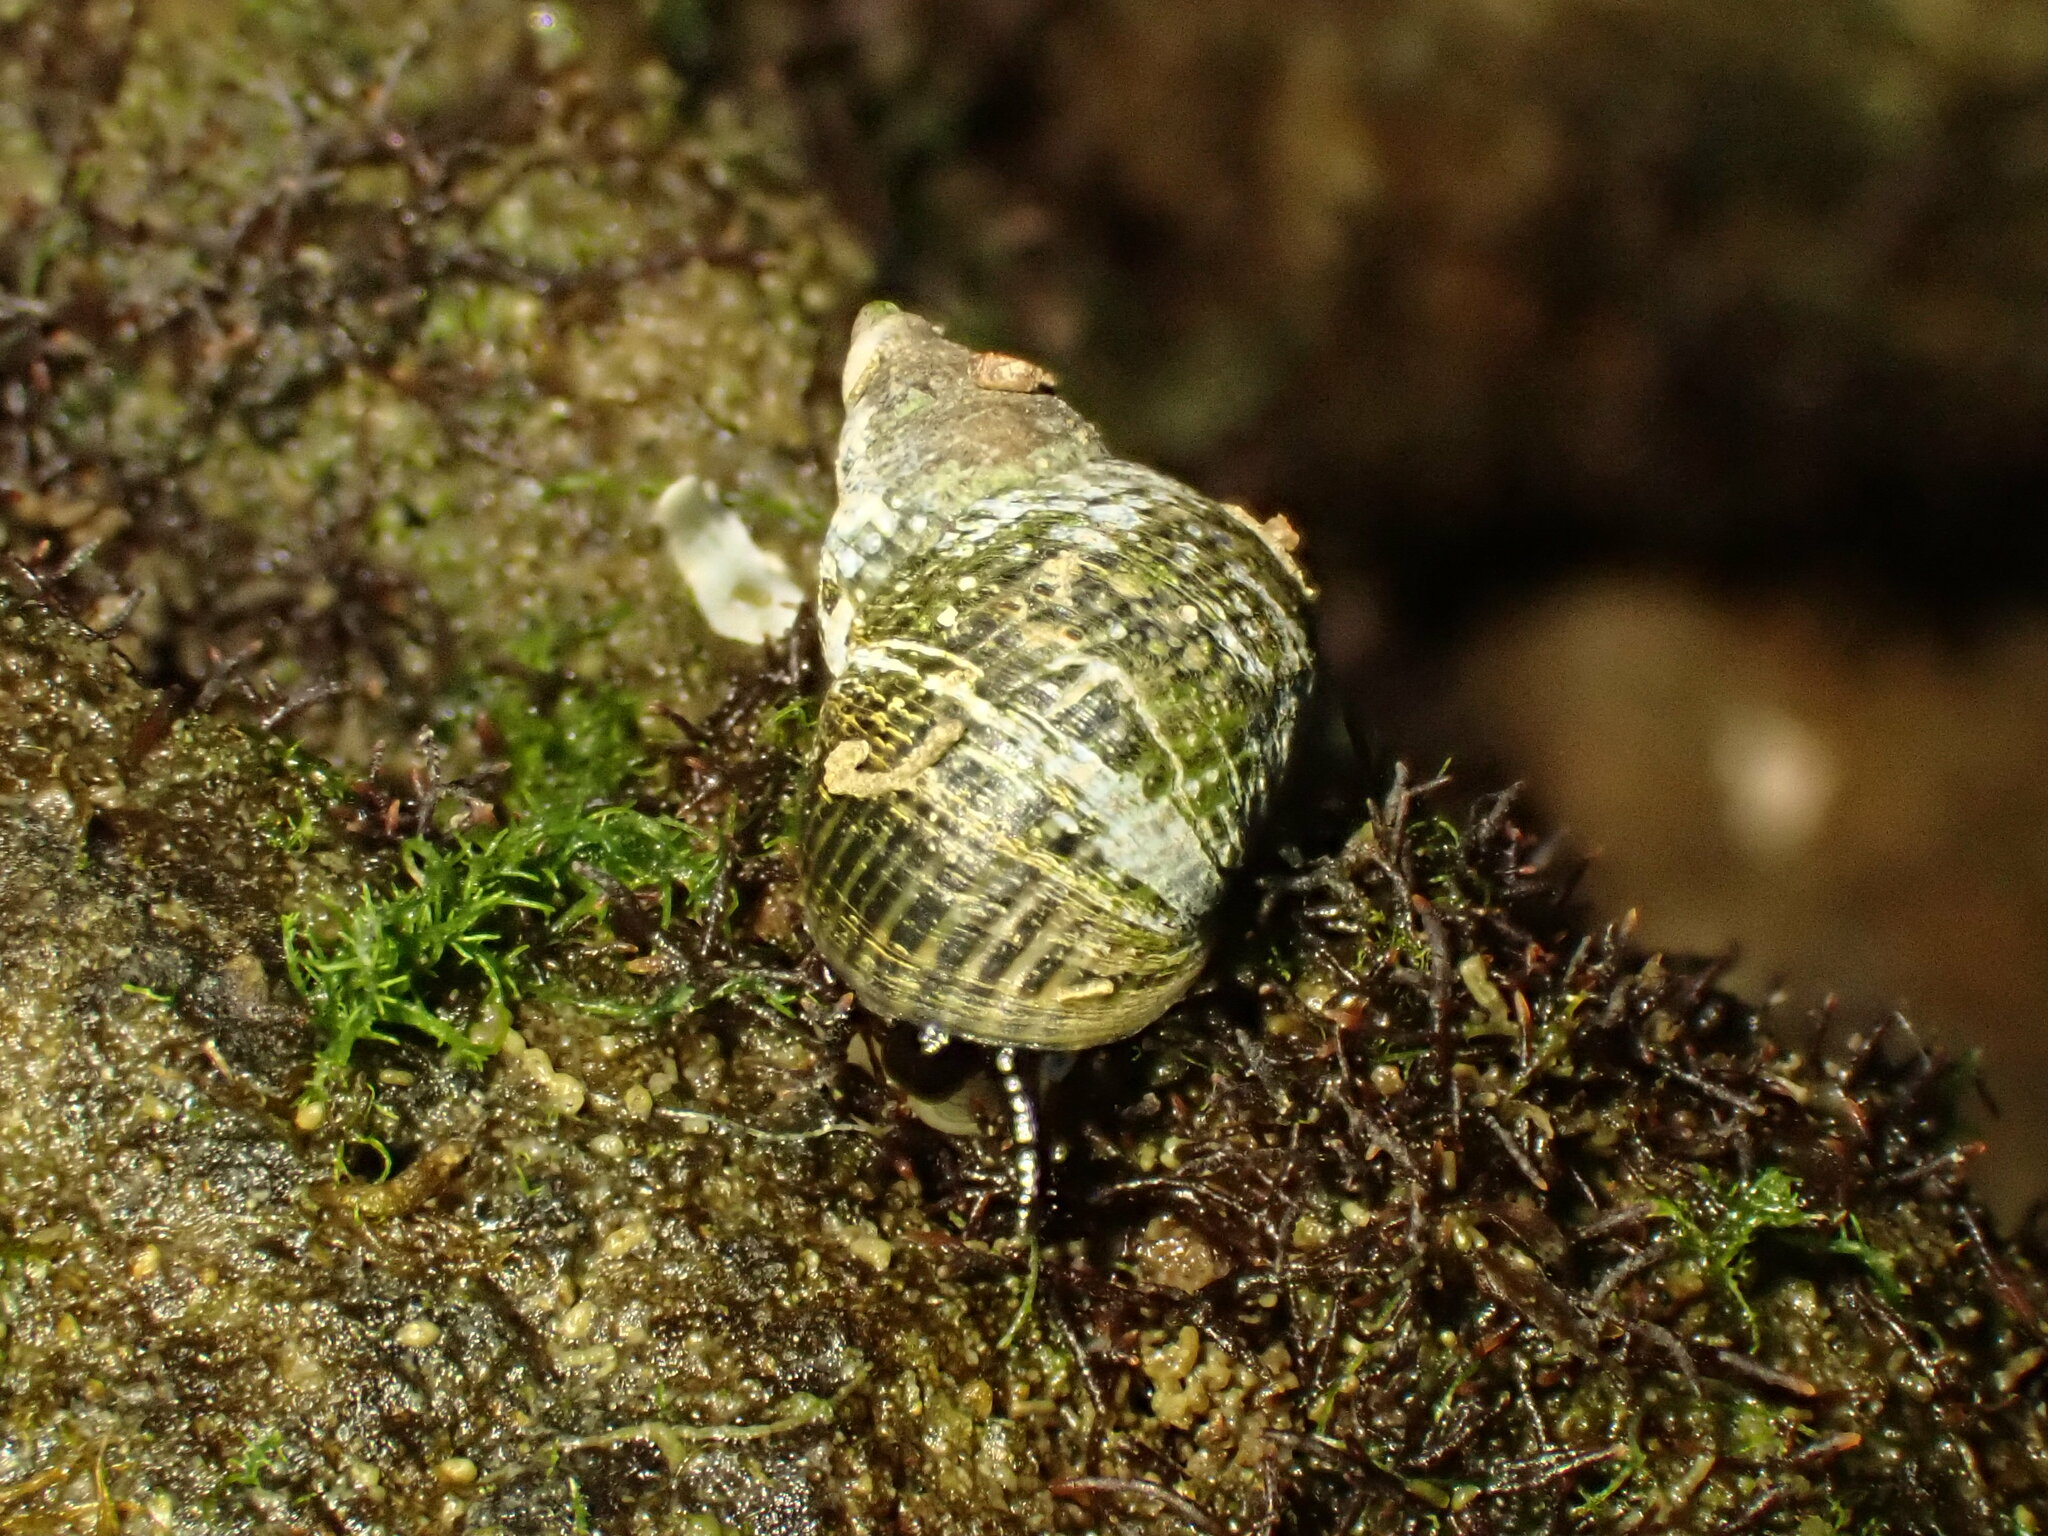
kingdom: Animalia
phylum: Mollusca
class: Gastropoda
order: Littorinimorpha
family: Littorinidae
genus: Austrolittorina
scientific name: Austrolittorina cincta
